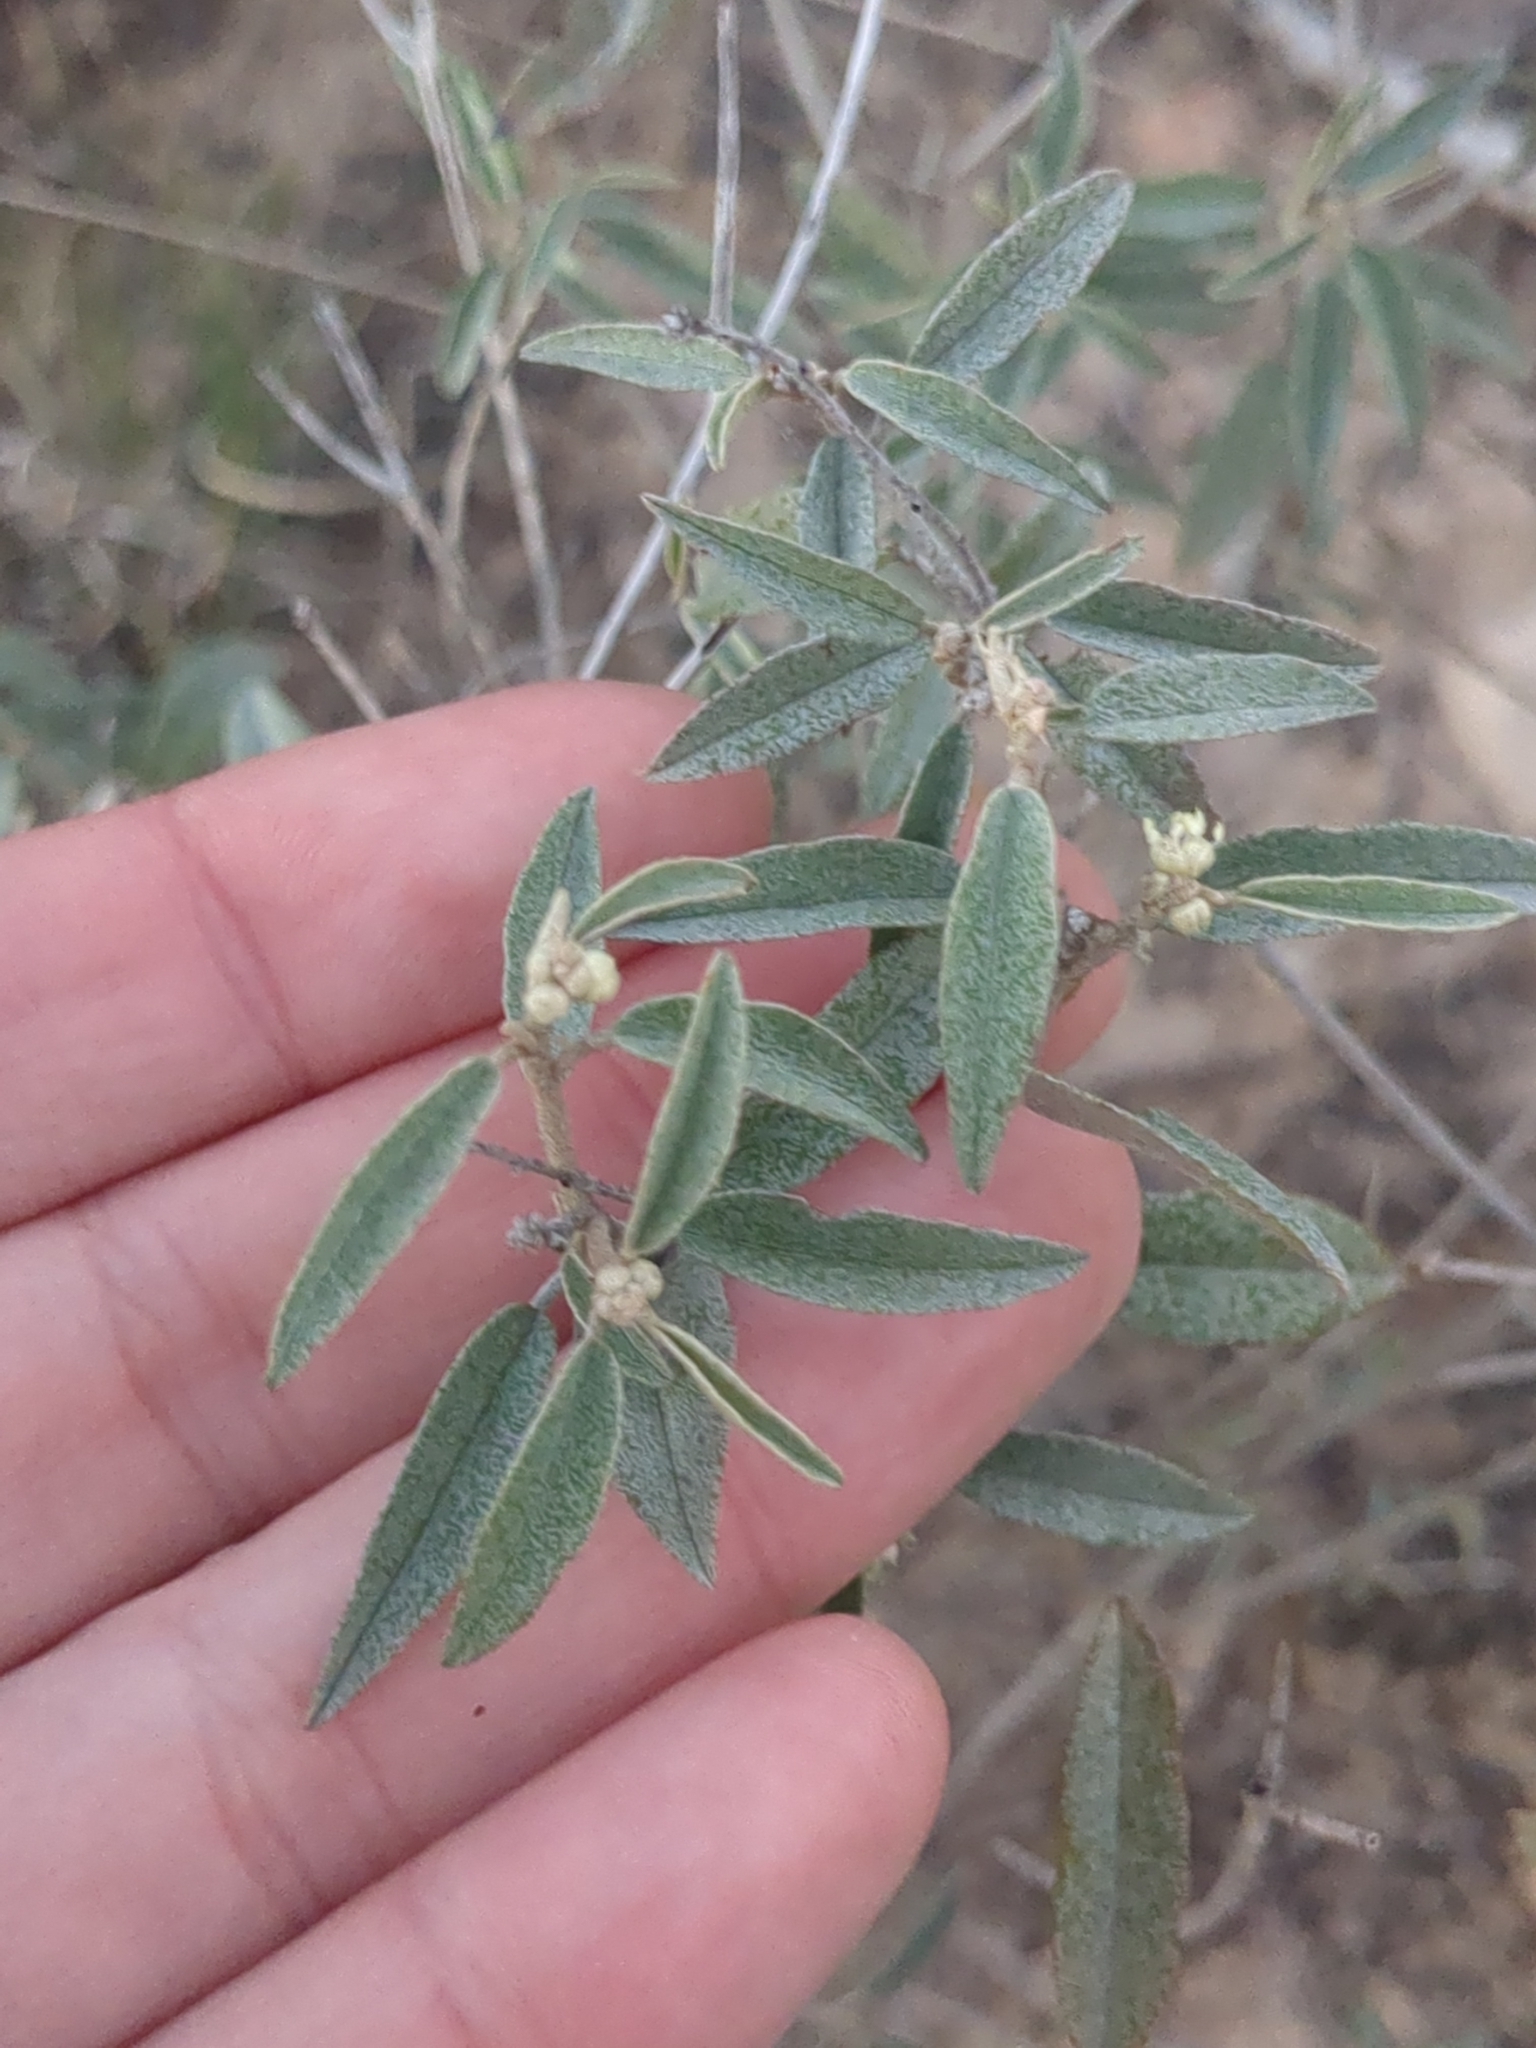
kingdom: Plantae
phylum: Tracheophyta
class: Magnoliopsida
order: Malpighiales
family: Euphorbiaceae
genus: Croton
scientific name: Croton dioicus
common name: Grassland croton
